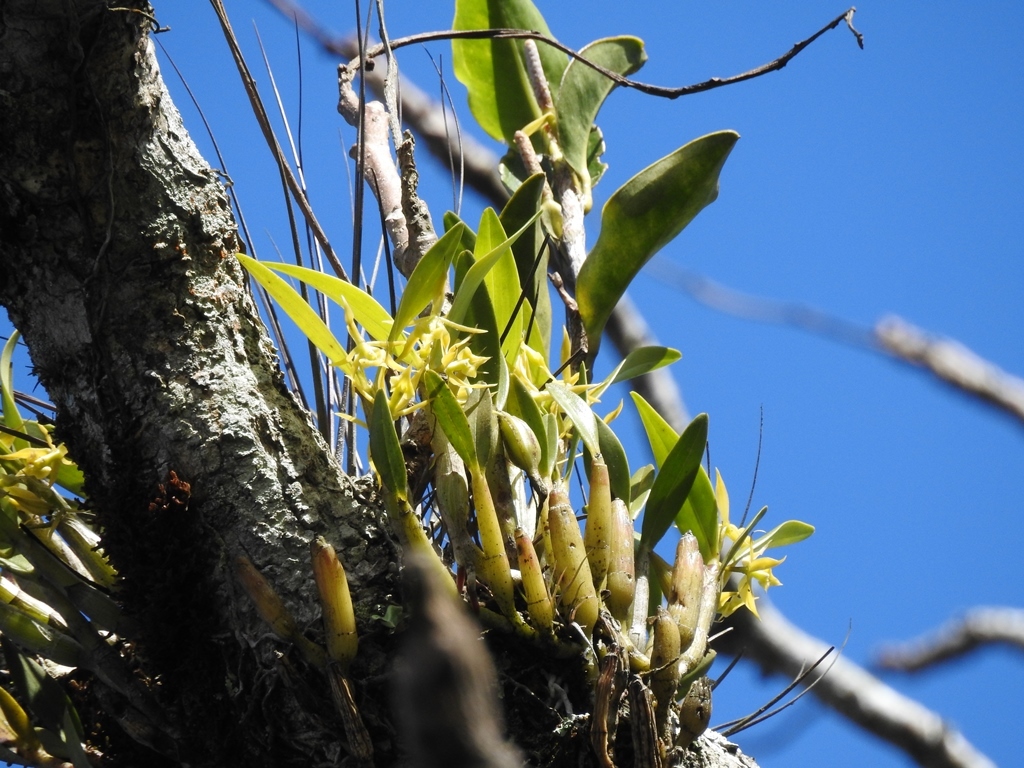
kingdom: Plantae
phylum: Tracheophyta
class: Liliopsida
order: Asparagales
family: Orchidaceae
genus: Epidendrum
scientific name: Epidendrum cardiochilum
